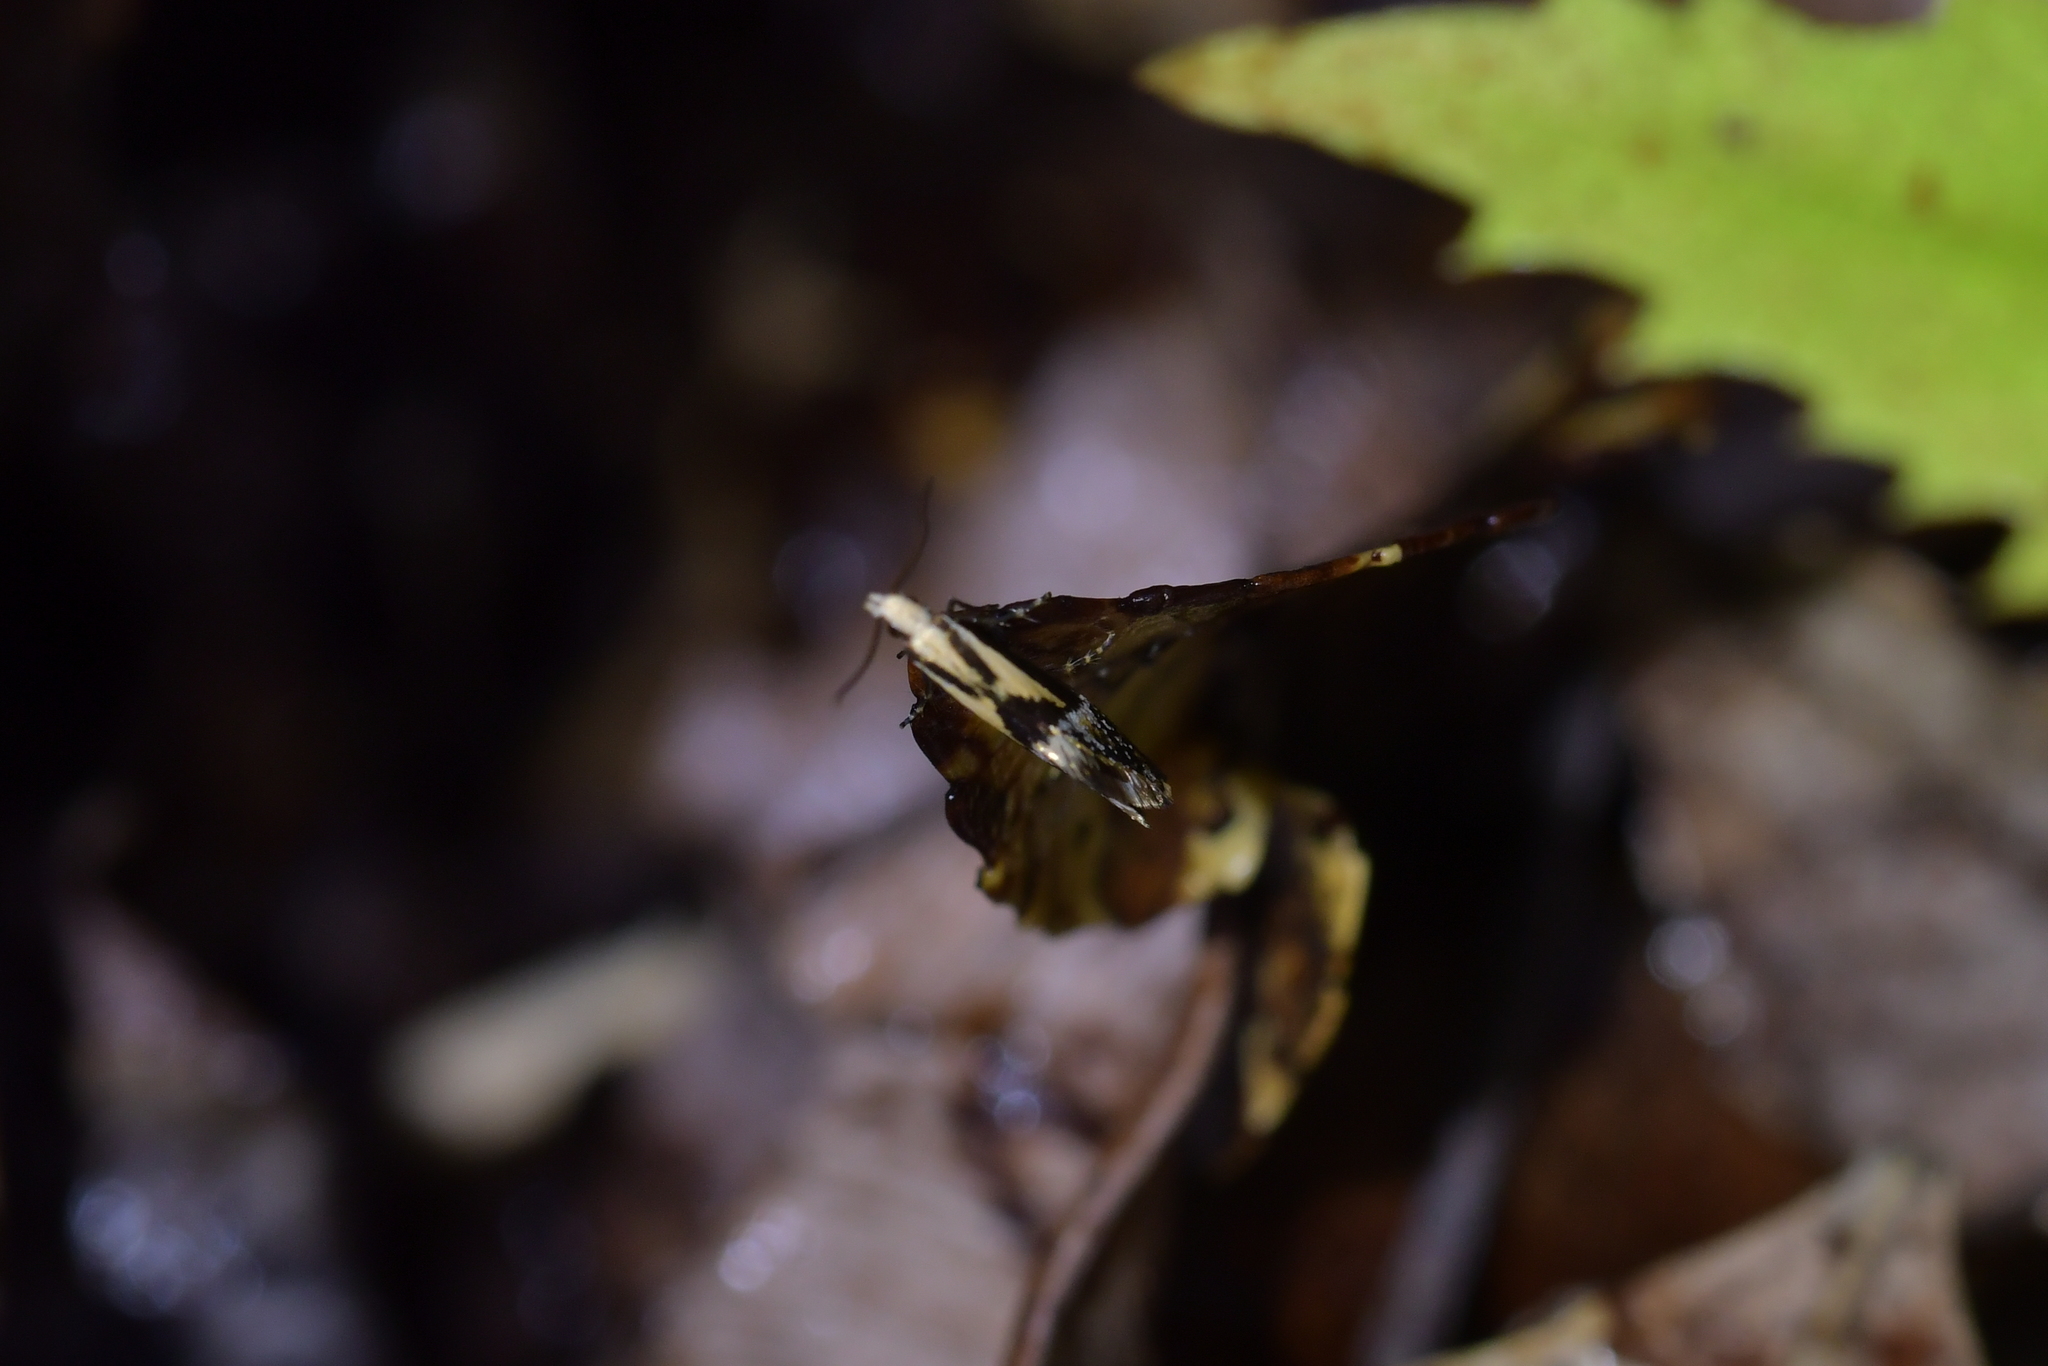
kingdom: Animalia
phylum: Arthropoda
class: Insecta
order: Lepidoptera
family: Mnesarchaeidae
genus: Mnesarchella
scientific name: Mnesarchella loxoscia
